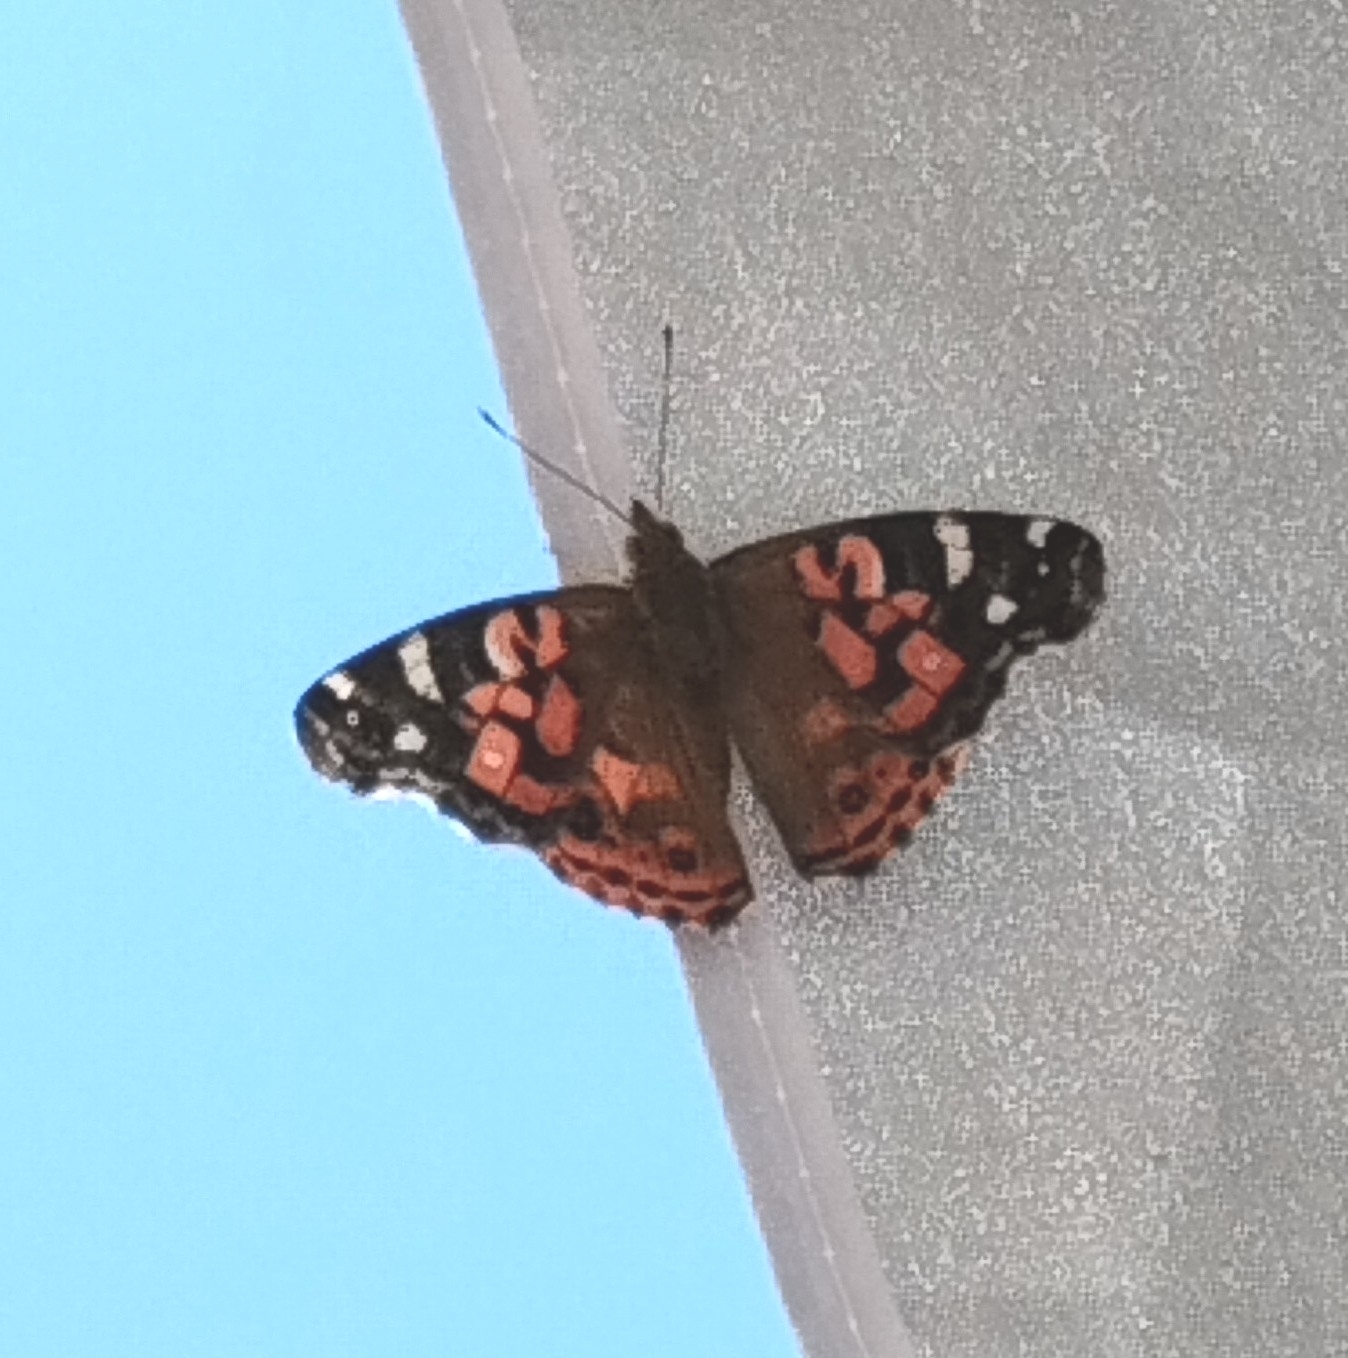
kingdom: Animalia
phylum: Arthropoda
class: Insecta
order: Lepidoptera
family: Nymphalidae
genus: Vanessa
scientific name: Vanessa braziliensis
